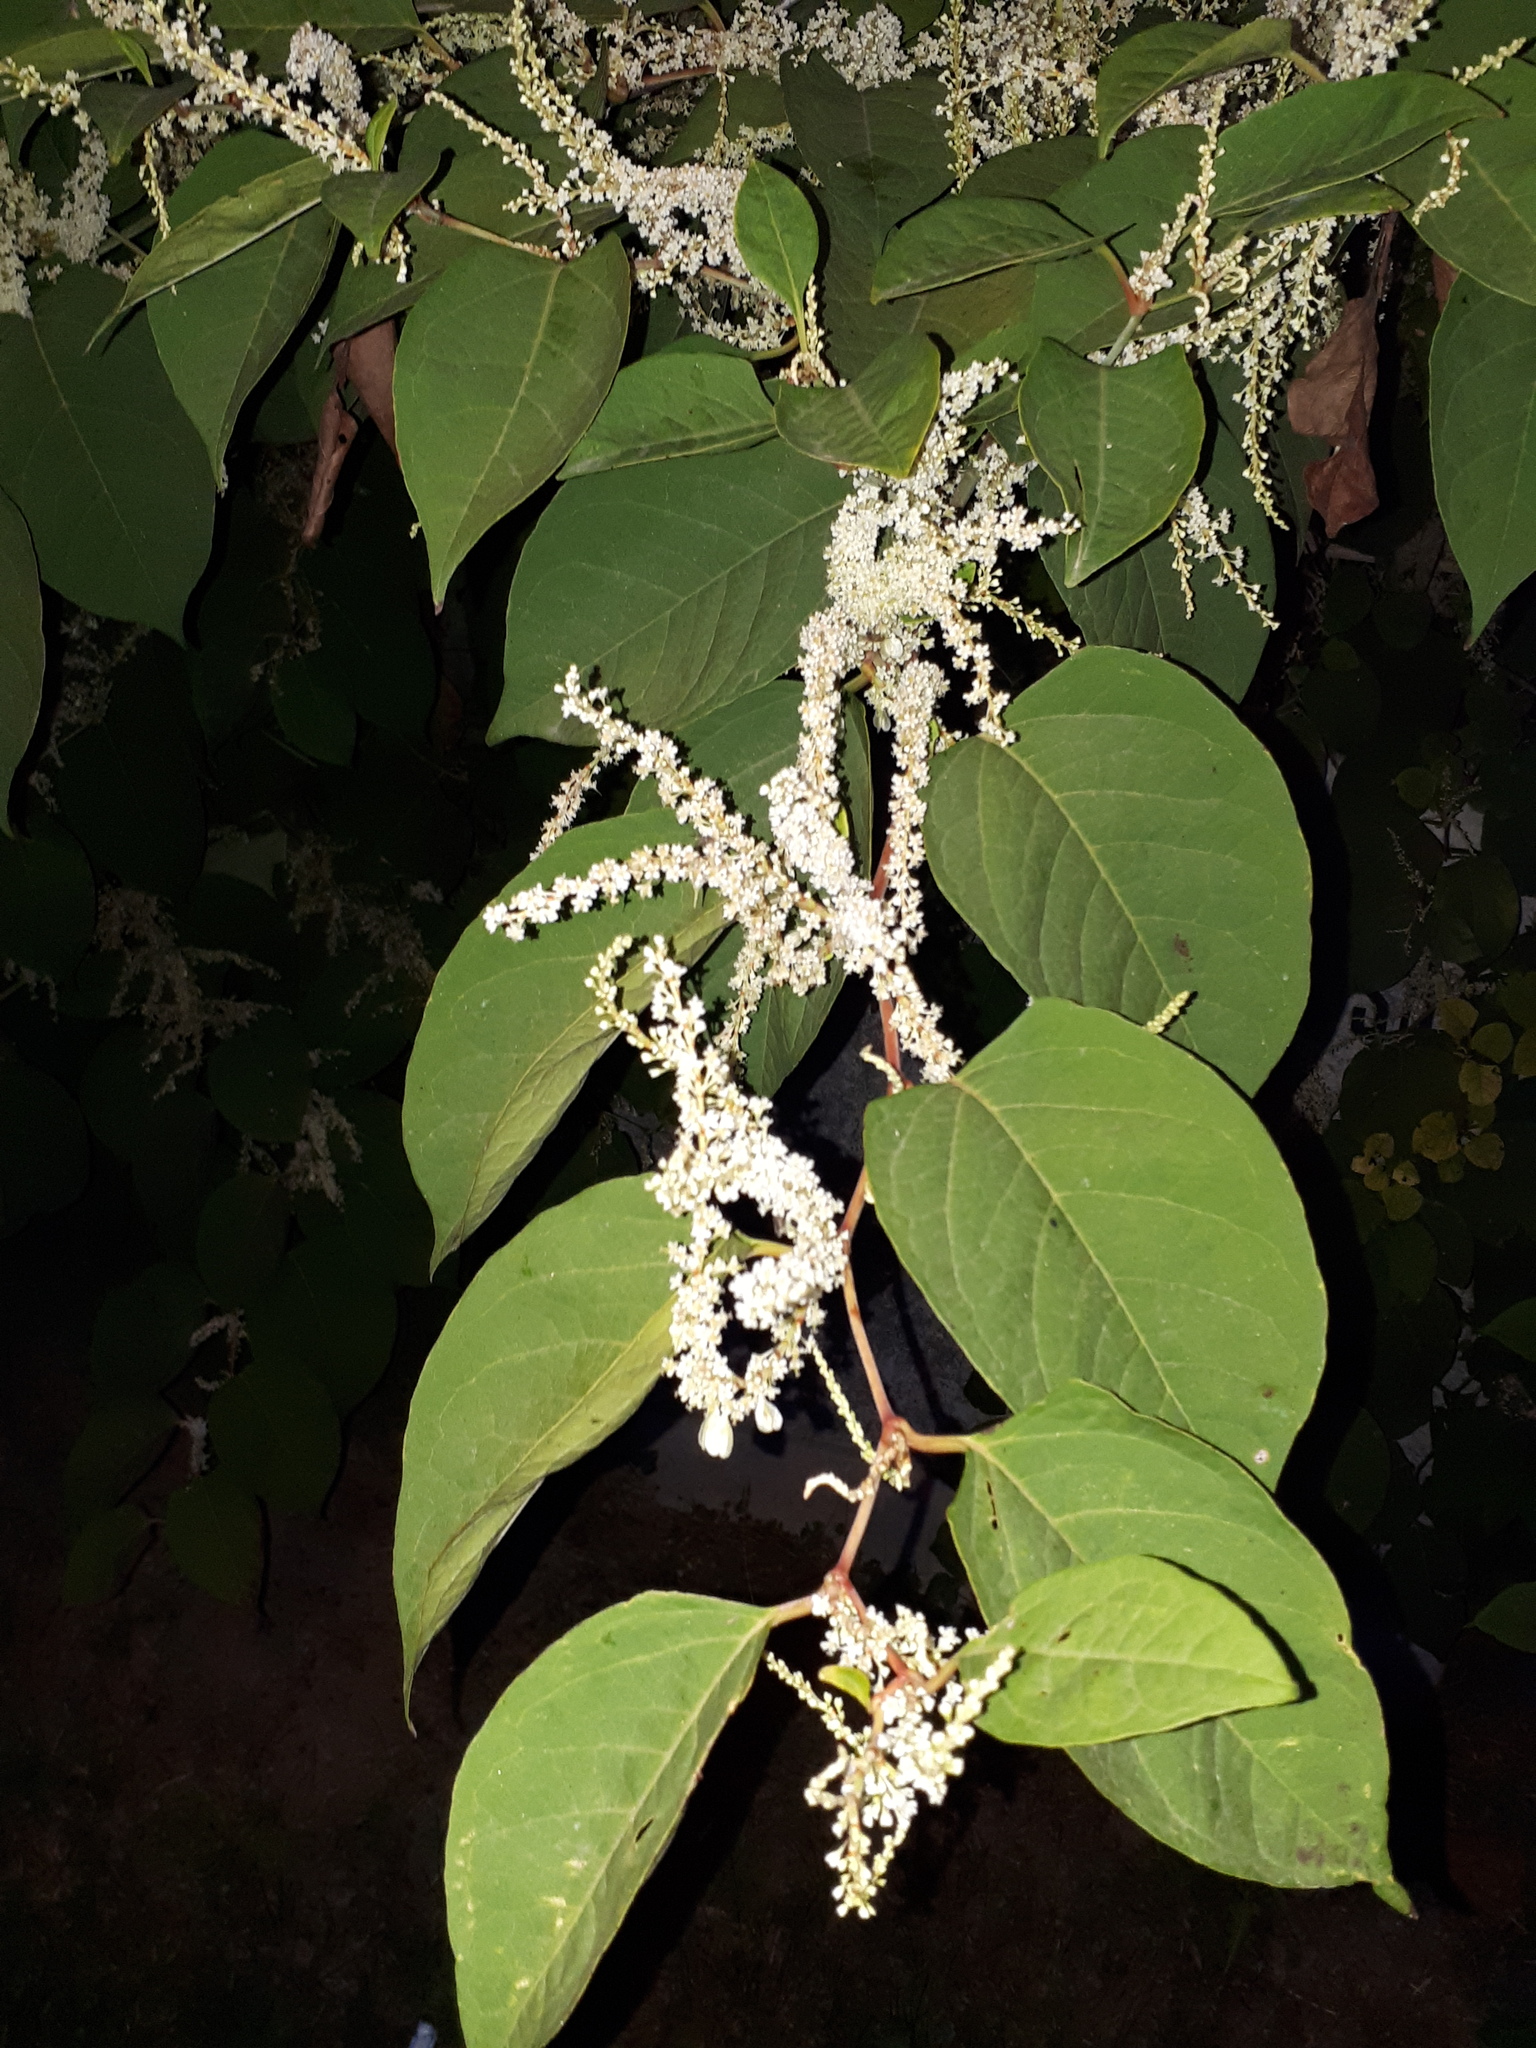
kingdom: Plantae
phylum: Tracheophyta
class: Magnoliopsida
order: Caryophyllales
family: Polygonaceae
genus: Reynoutria
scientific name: Reynoutria japonica
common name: Japanese knotweed
